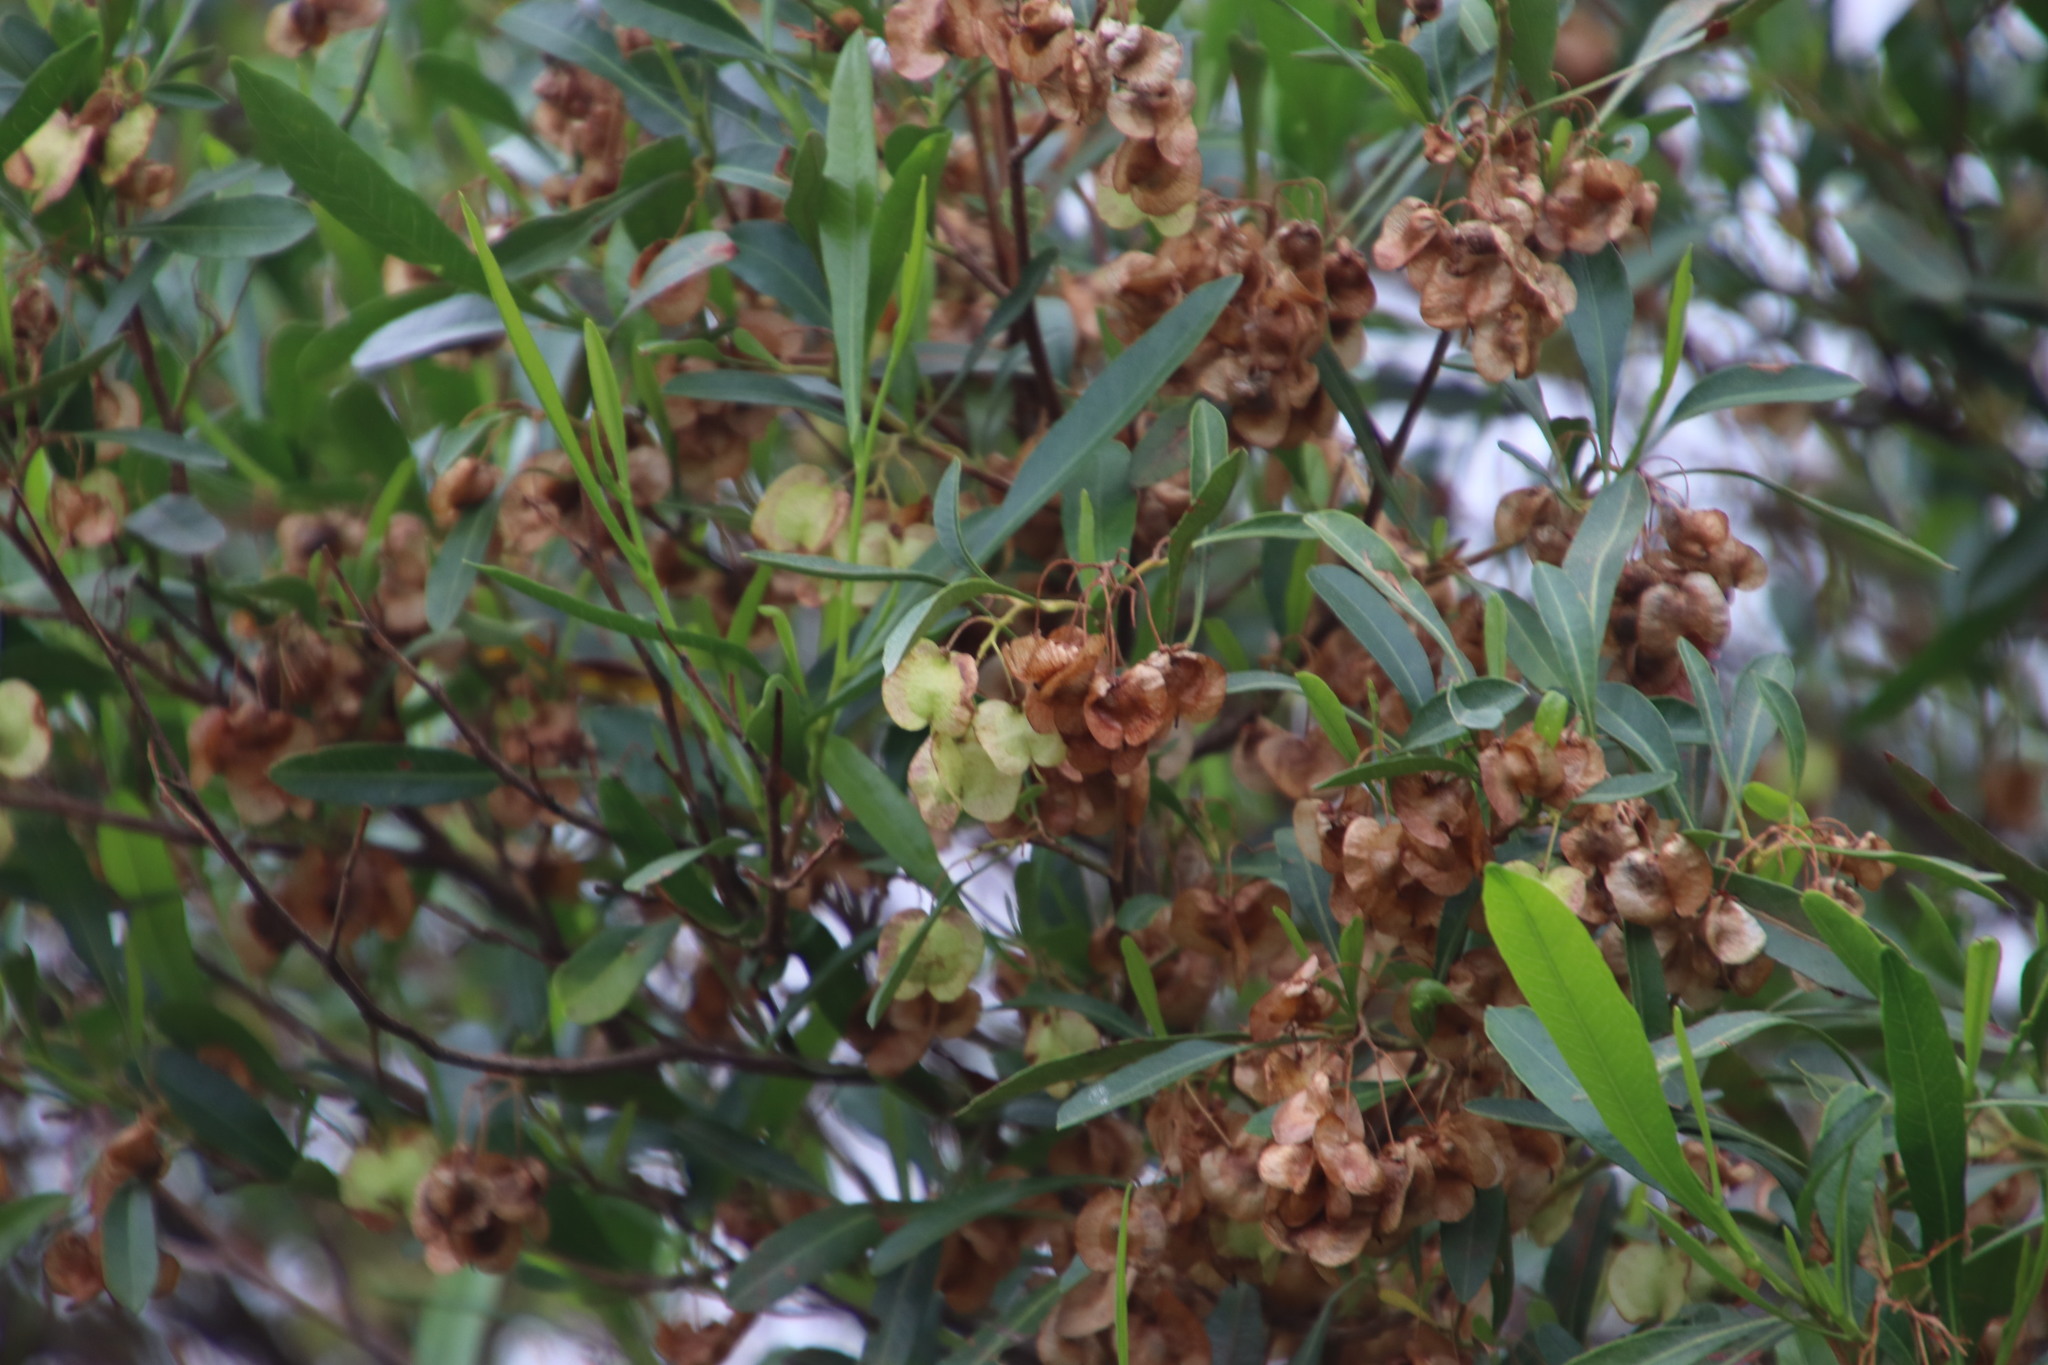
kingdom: Plantae
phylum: Tracheophyta
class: Magnoliopsida
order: Sapindales
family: Sapindaceae
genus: Dodonaea
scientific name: Dodonaea viscosa
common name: Hopbush
